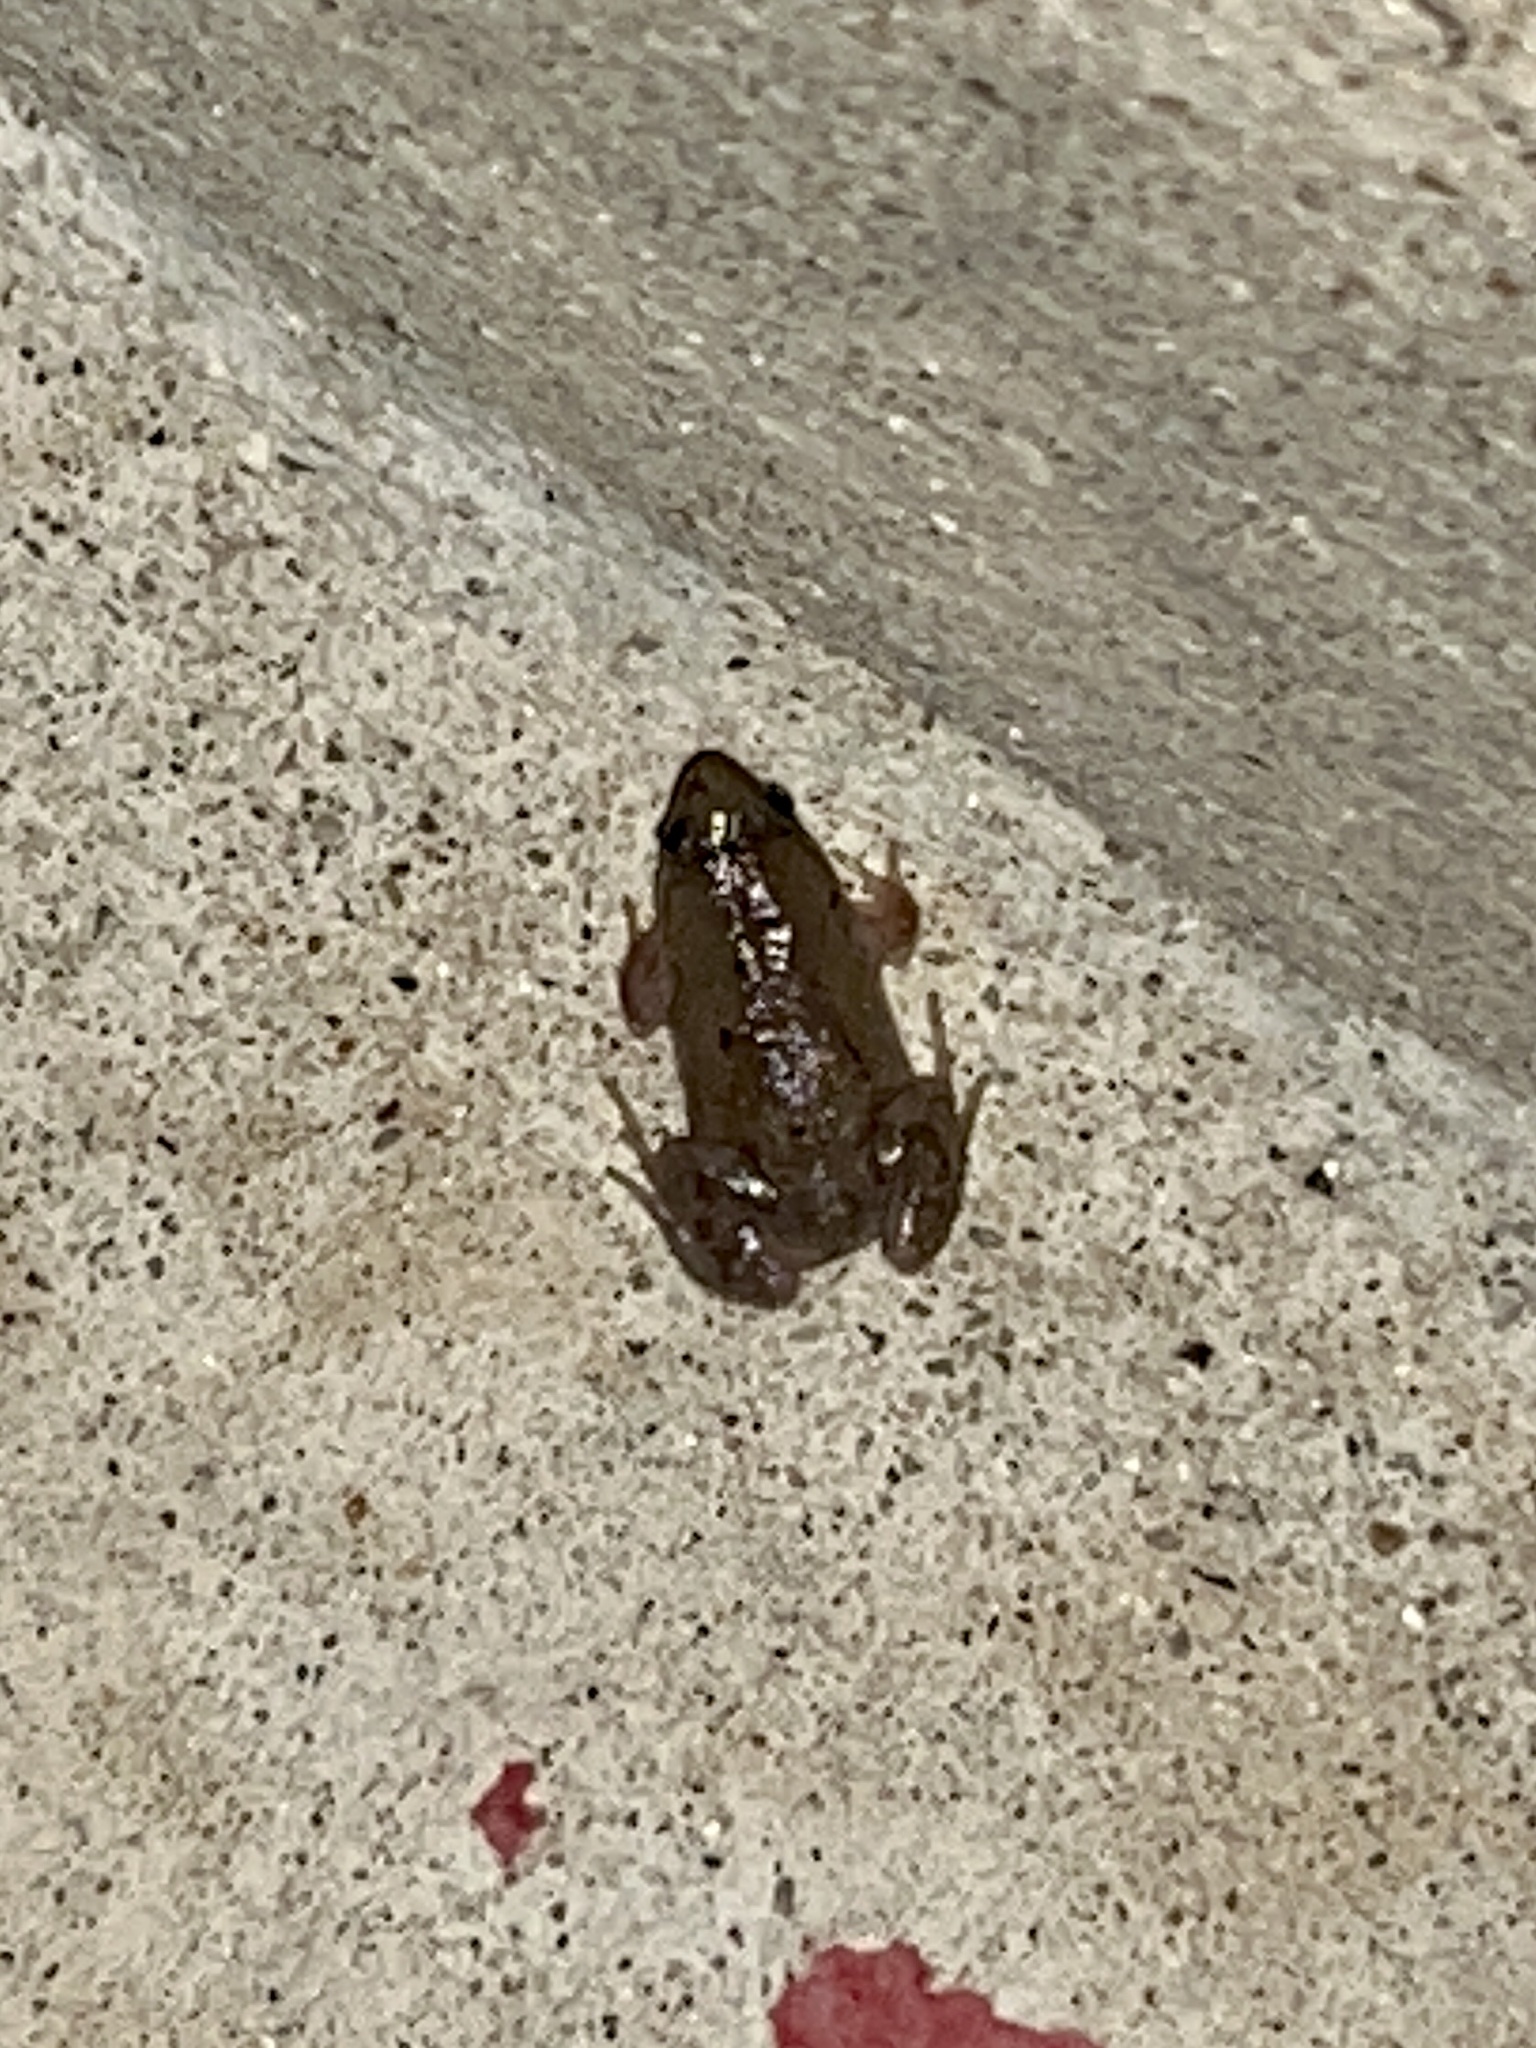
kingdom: Animalia
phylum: Chordata
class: Amphibia
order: Anura
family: Microhylidae
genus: Gastrophryne
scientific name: Gastrophryne olivacea
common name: Great plains narrow-mouthed toad
